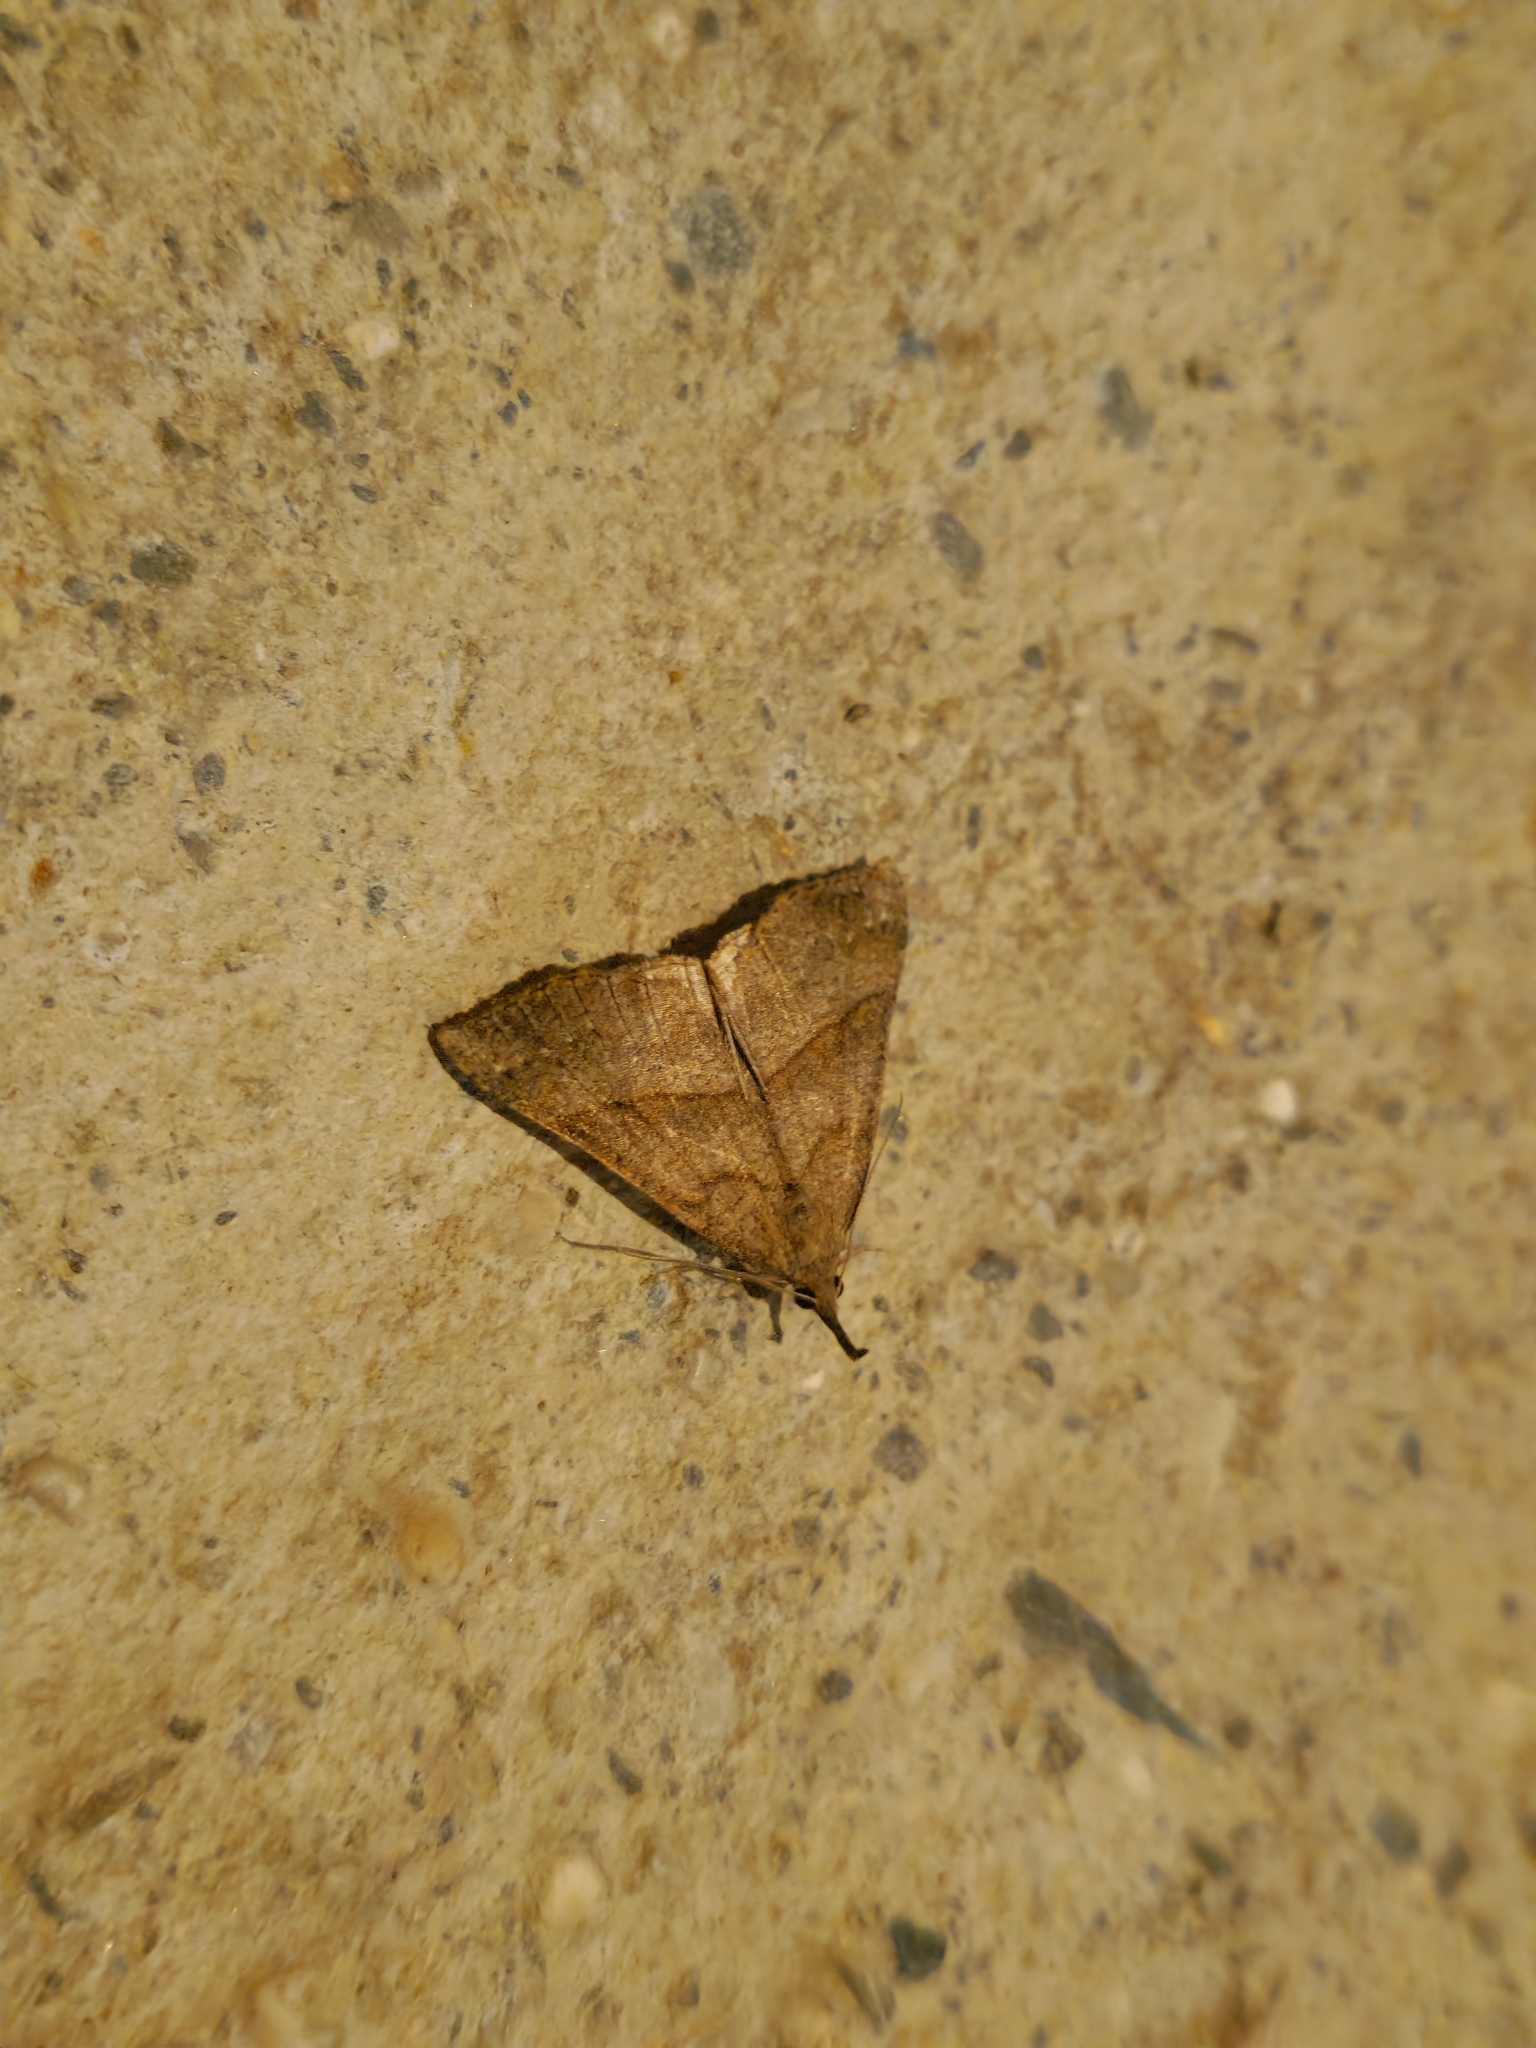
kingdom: Animalia
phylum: Arthropoda
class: Insecta
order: Lepidoptera
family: Erebidae
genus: Hypena
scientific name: Hypena proboscidalis
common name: Snout
